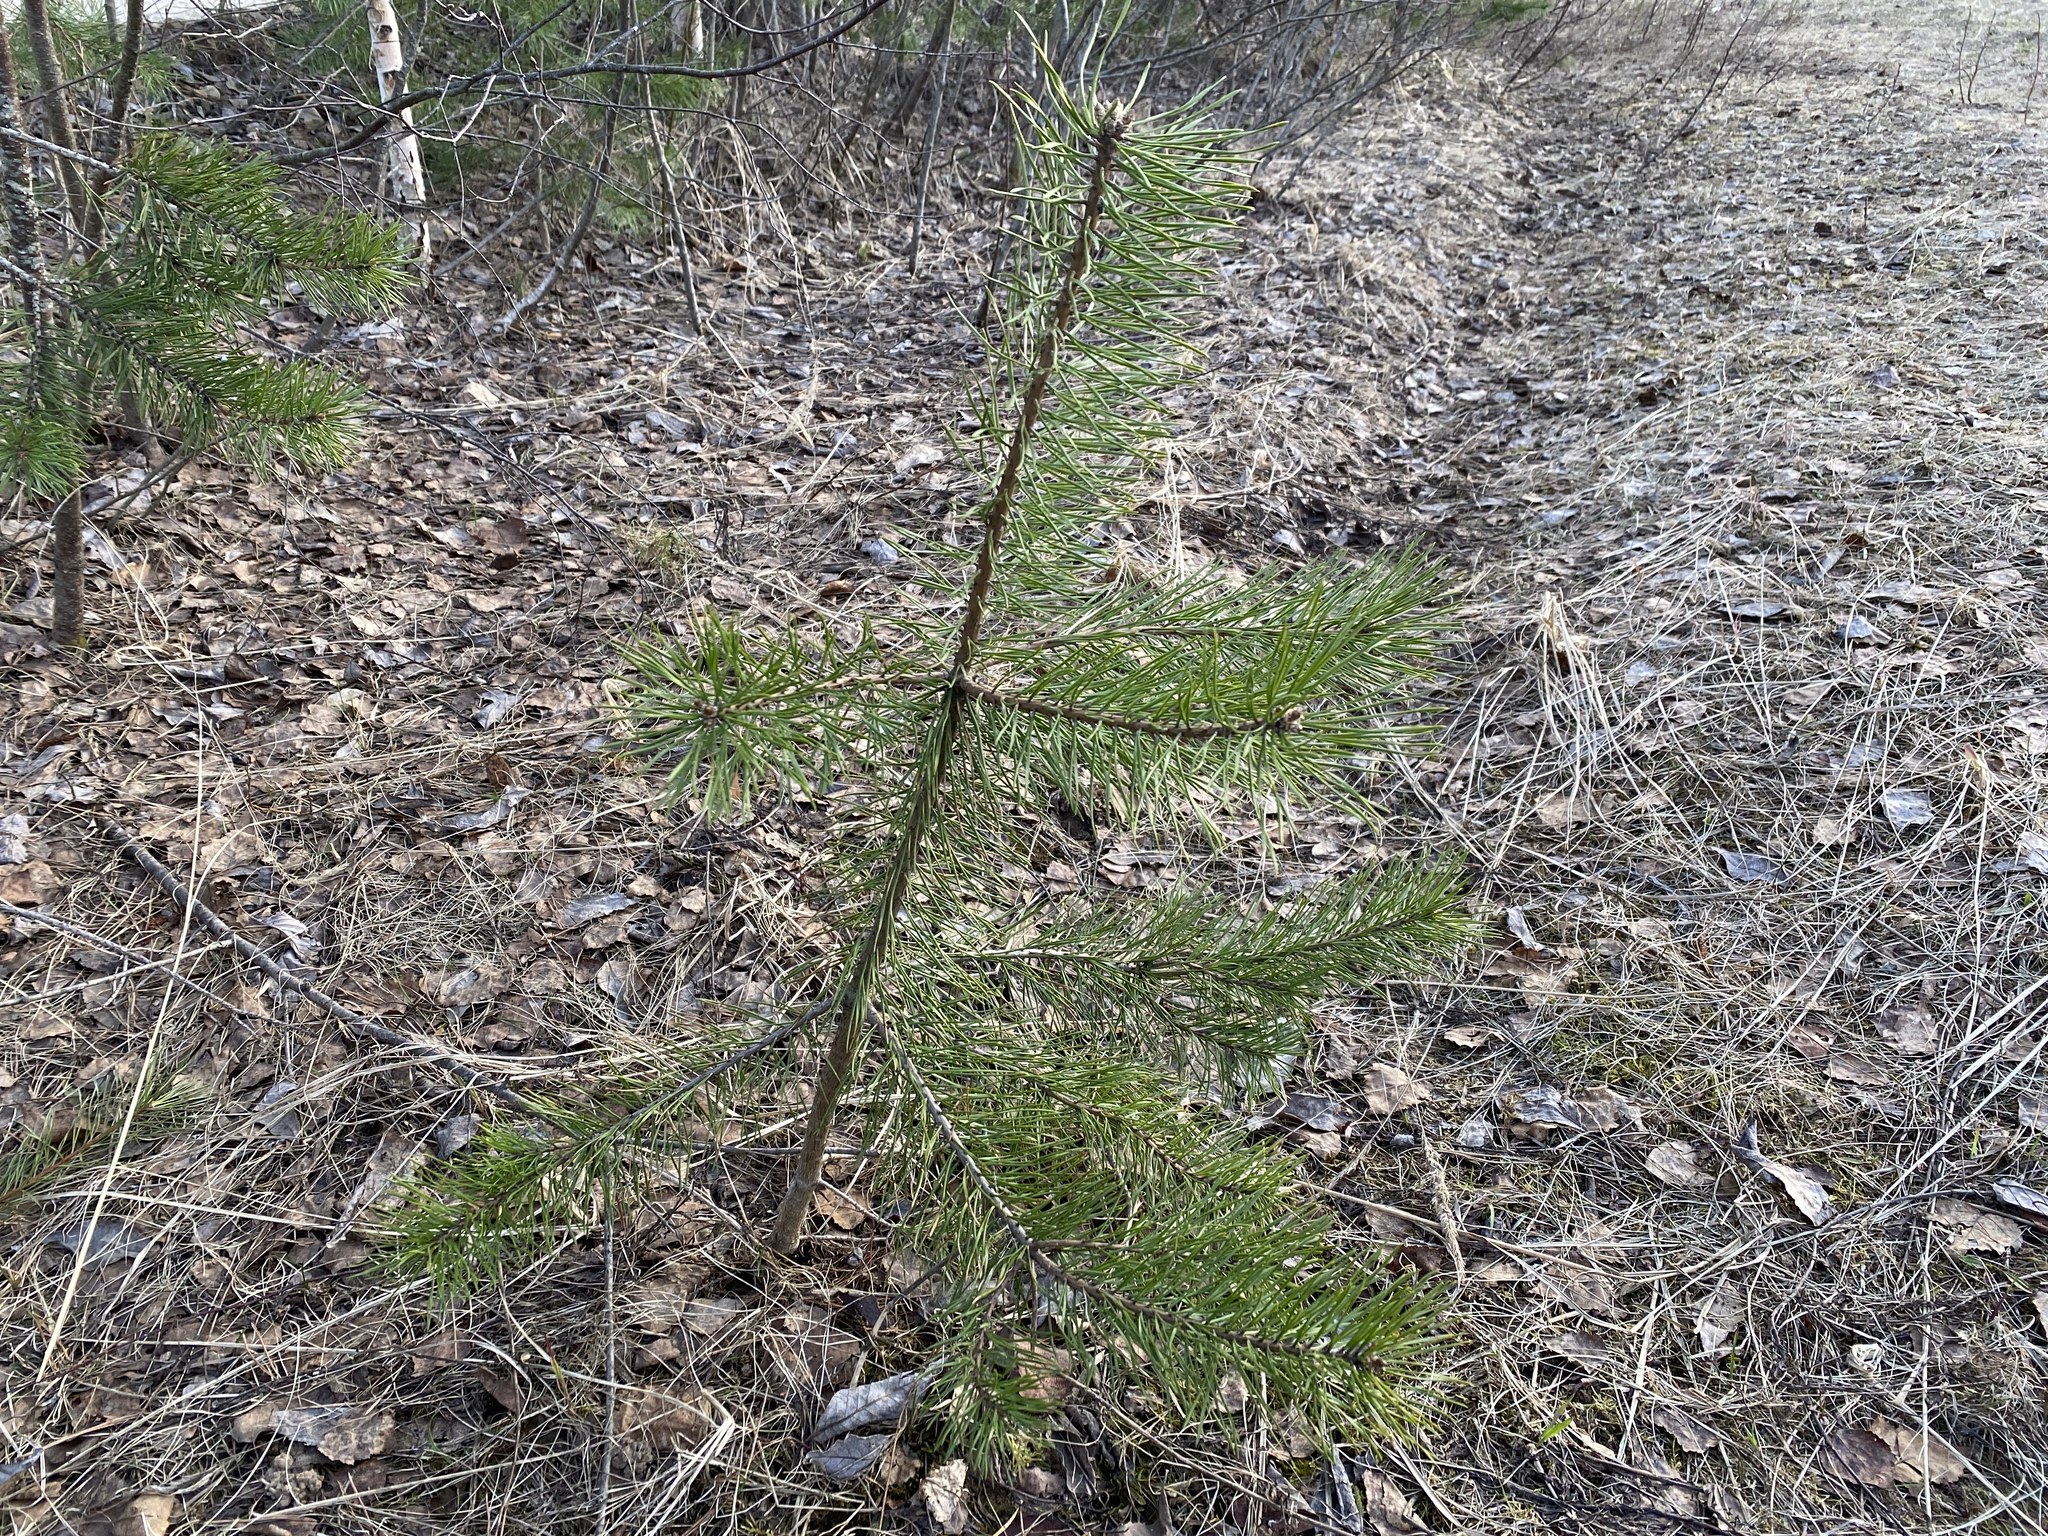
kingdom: Plantae
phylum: Tracheophyta
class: Pinopsida
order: Pinales
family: Pinaceae
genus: Pinus
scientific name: Pinus sylvestris
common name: Scots pine
